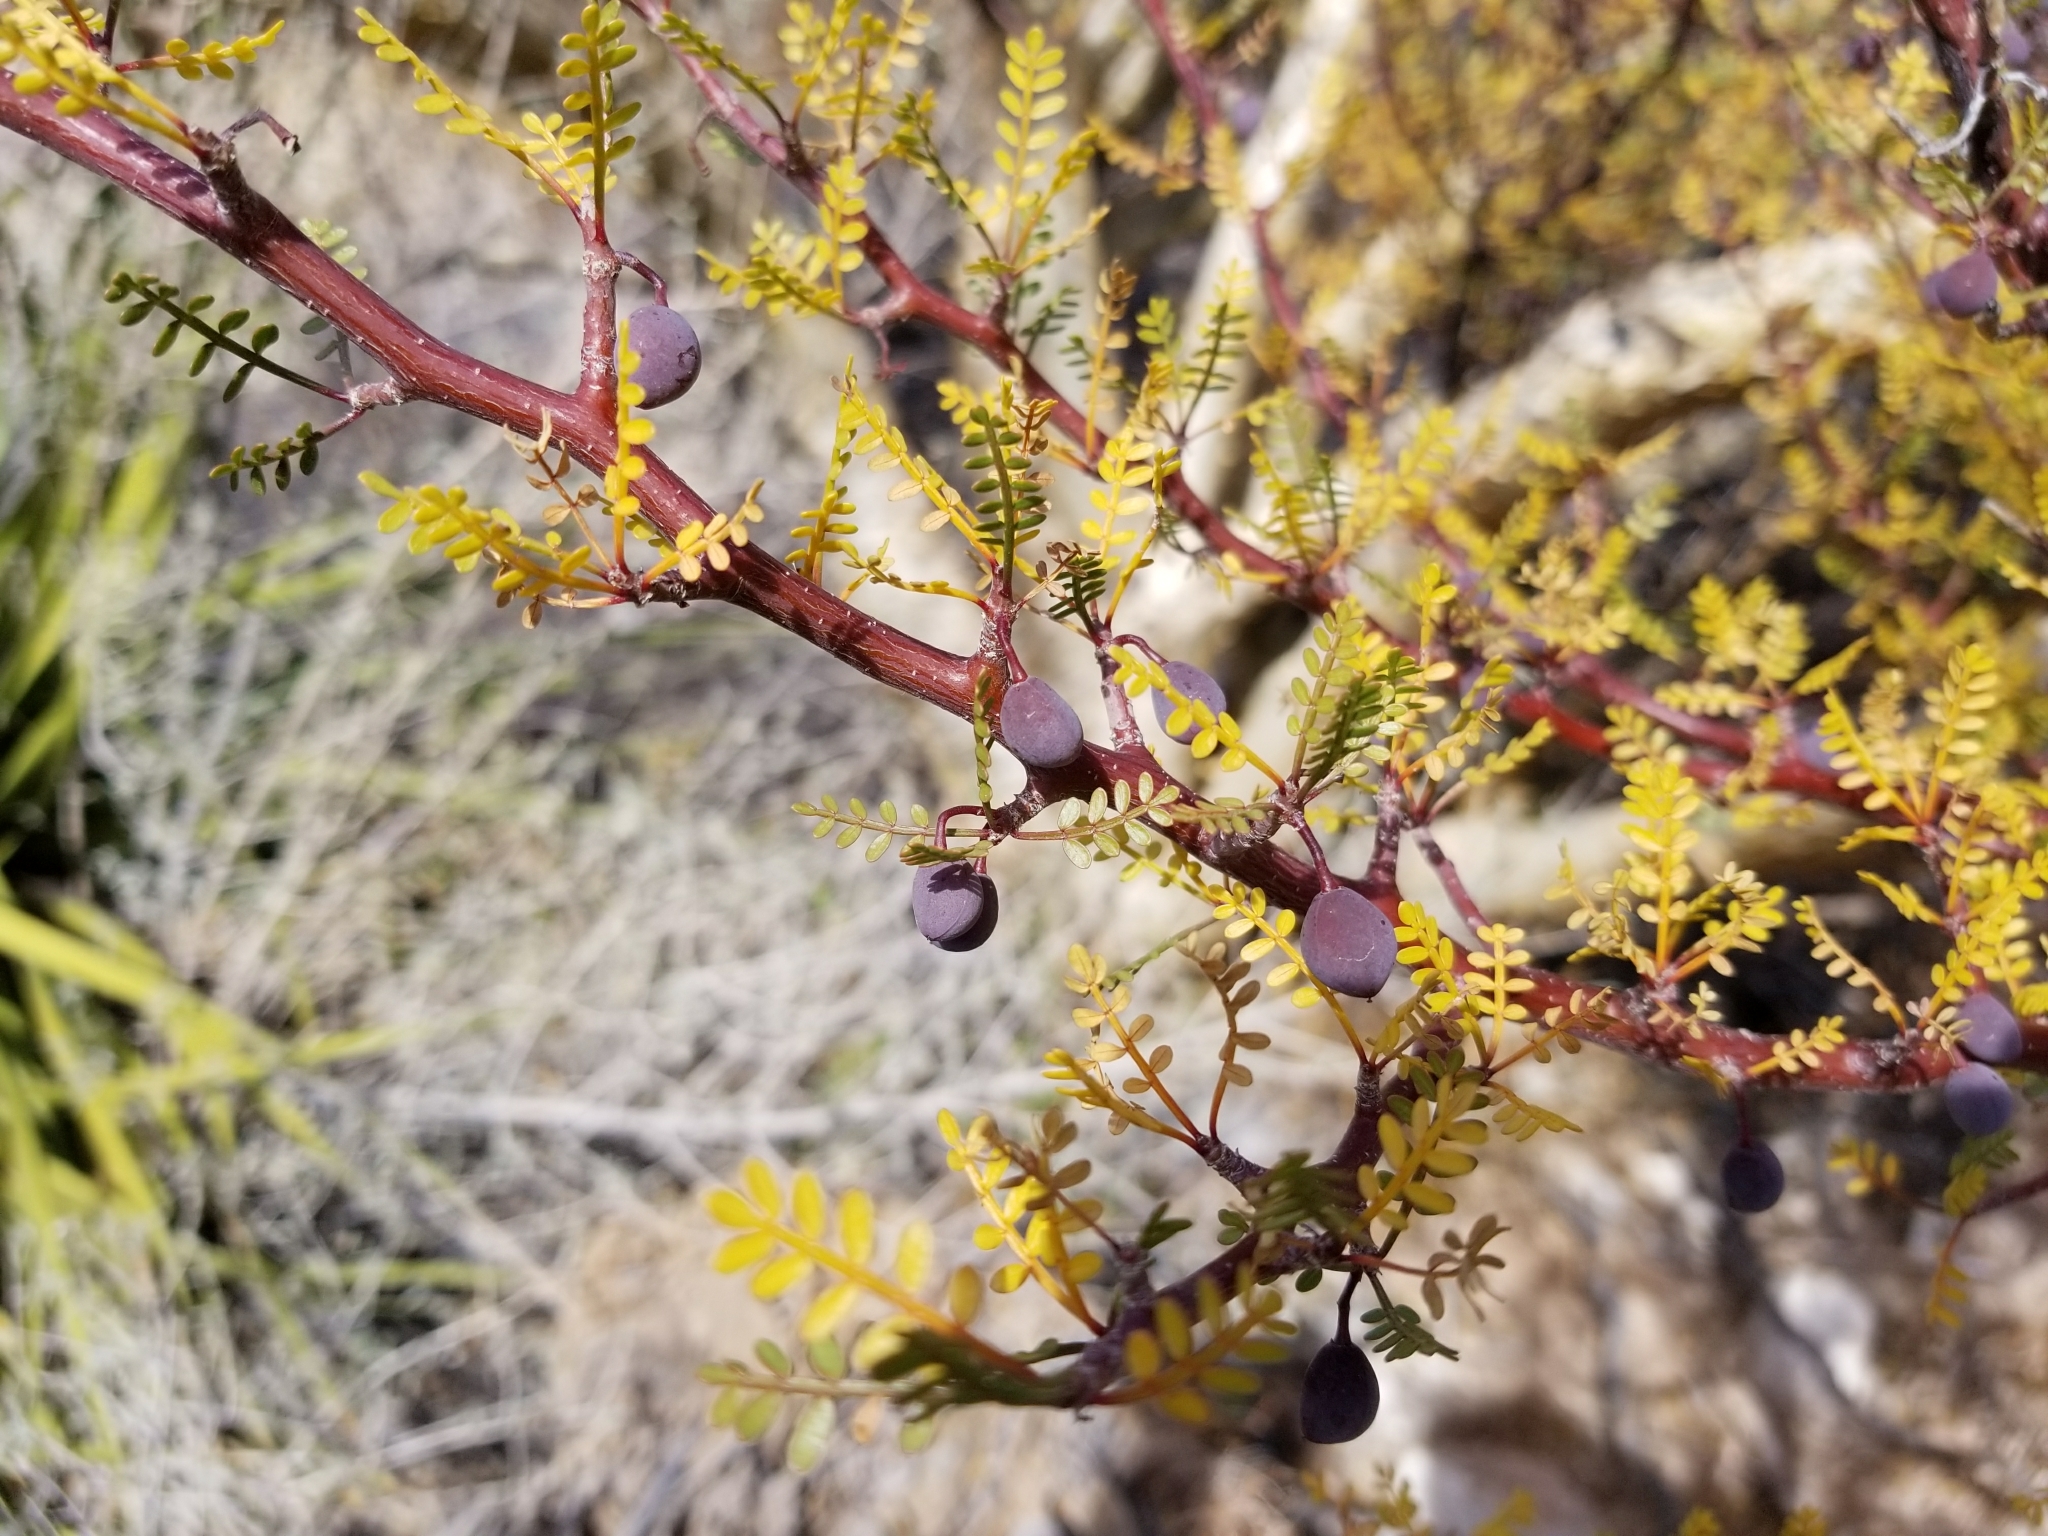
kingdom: Plantae
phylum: Tracheophyta
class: Magnoliopsida
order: Sapindales
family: Burseraceae
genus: Bursera
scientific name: Bursera microphylla
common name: Elephant tree
